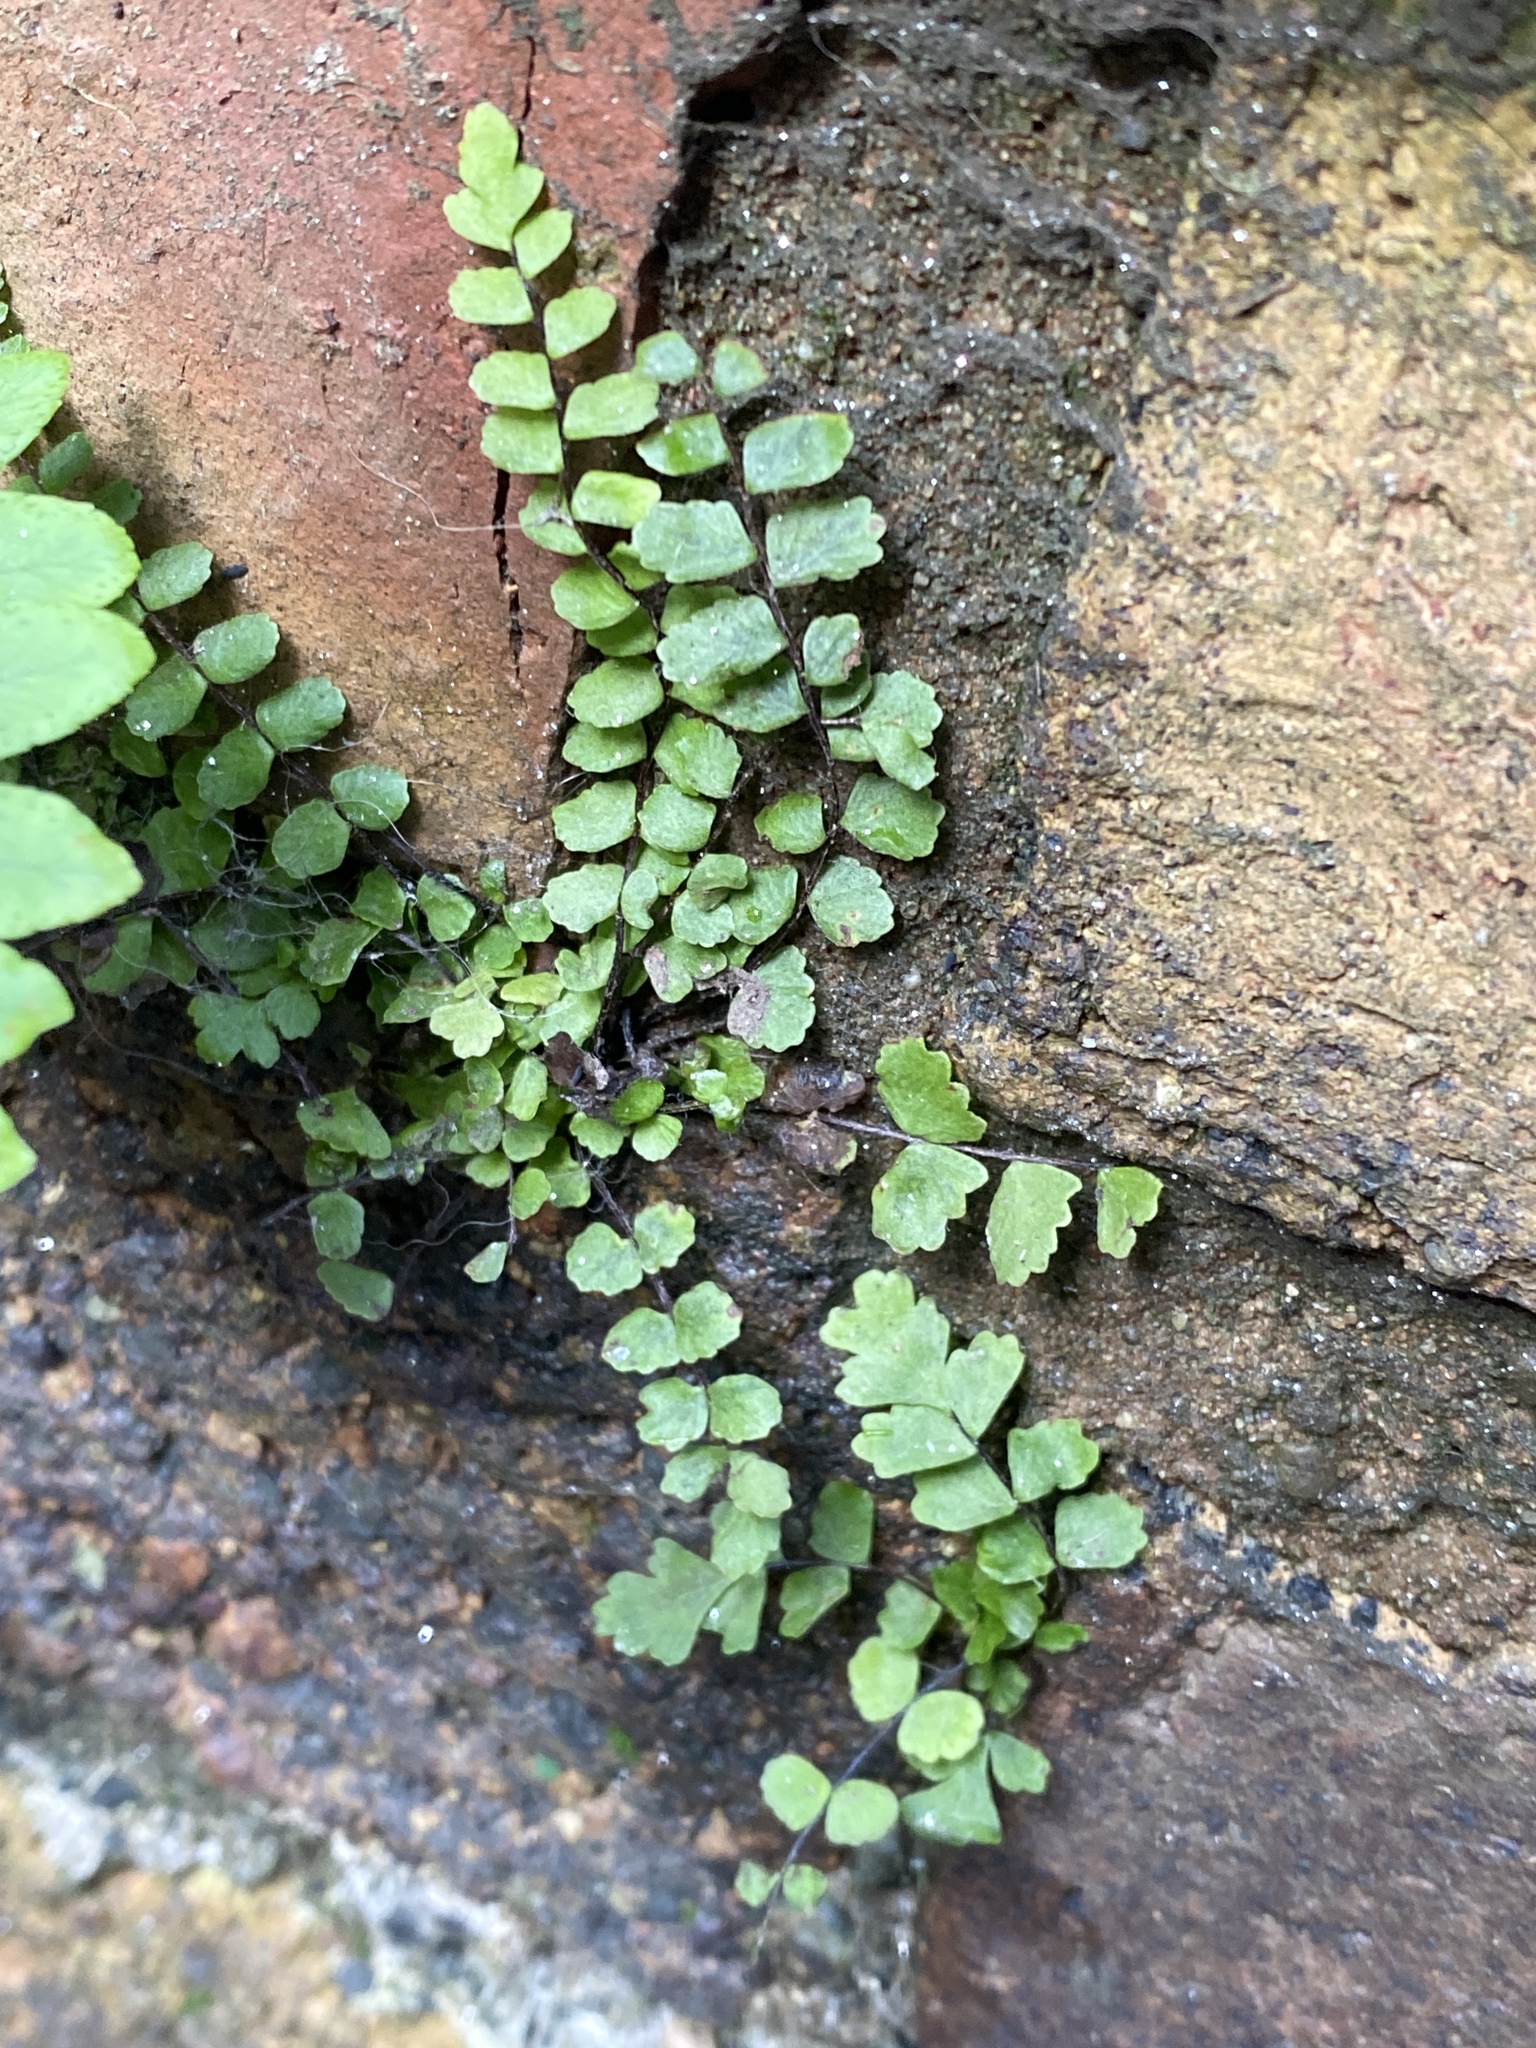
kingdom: Plantae
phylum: Tracheophyta
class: Polypodiopsida
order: Polypodiales
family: Aspleniaceae
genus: Asplenium
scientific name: Asplenium trichomanes
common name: Maidenhair spleenwort
